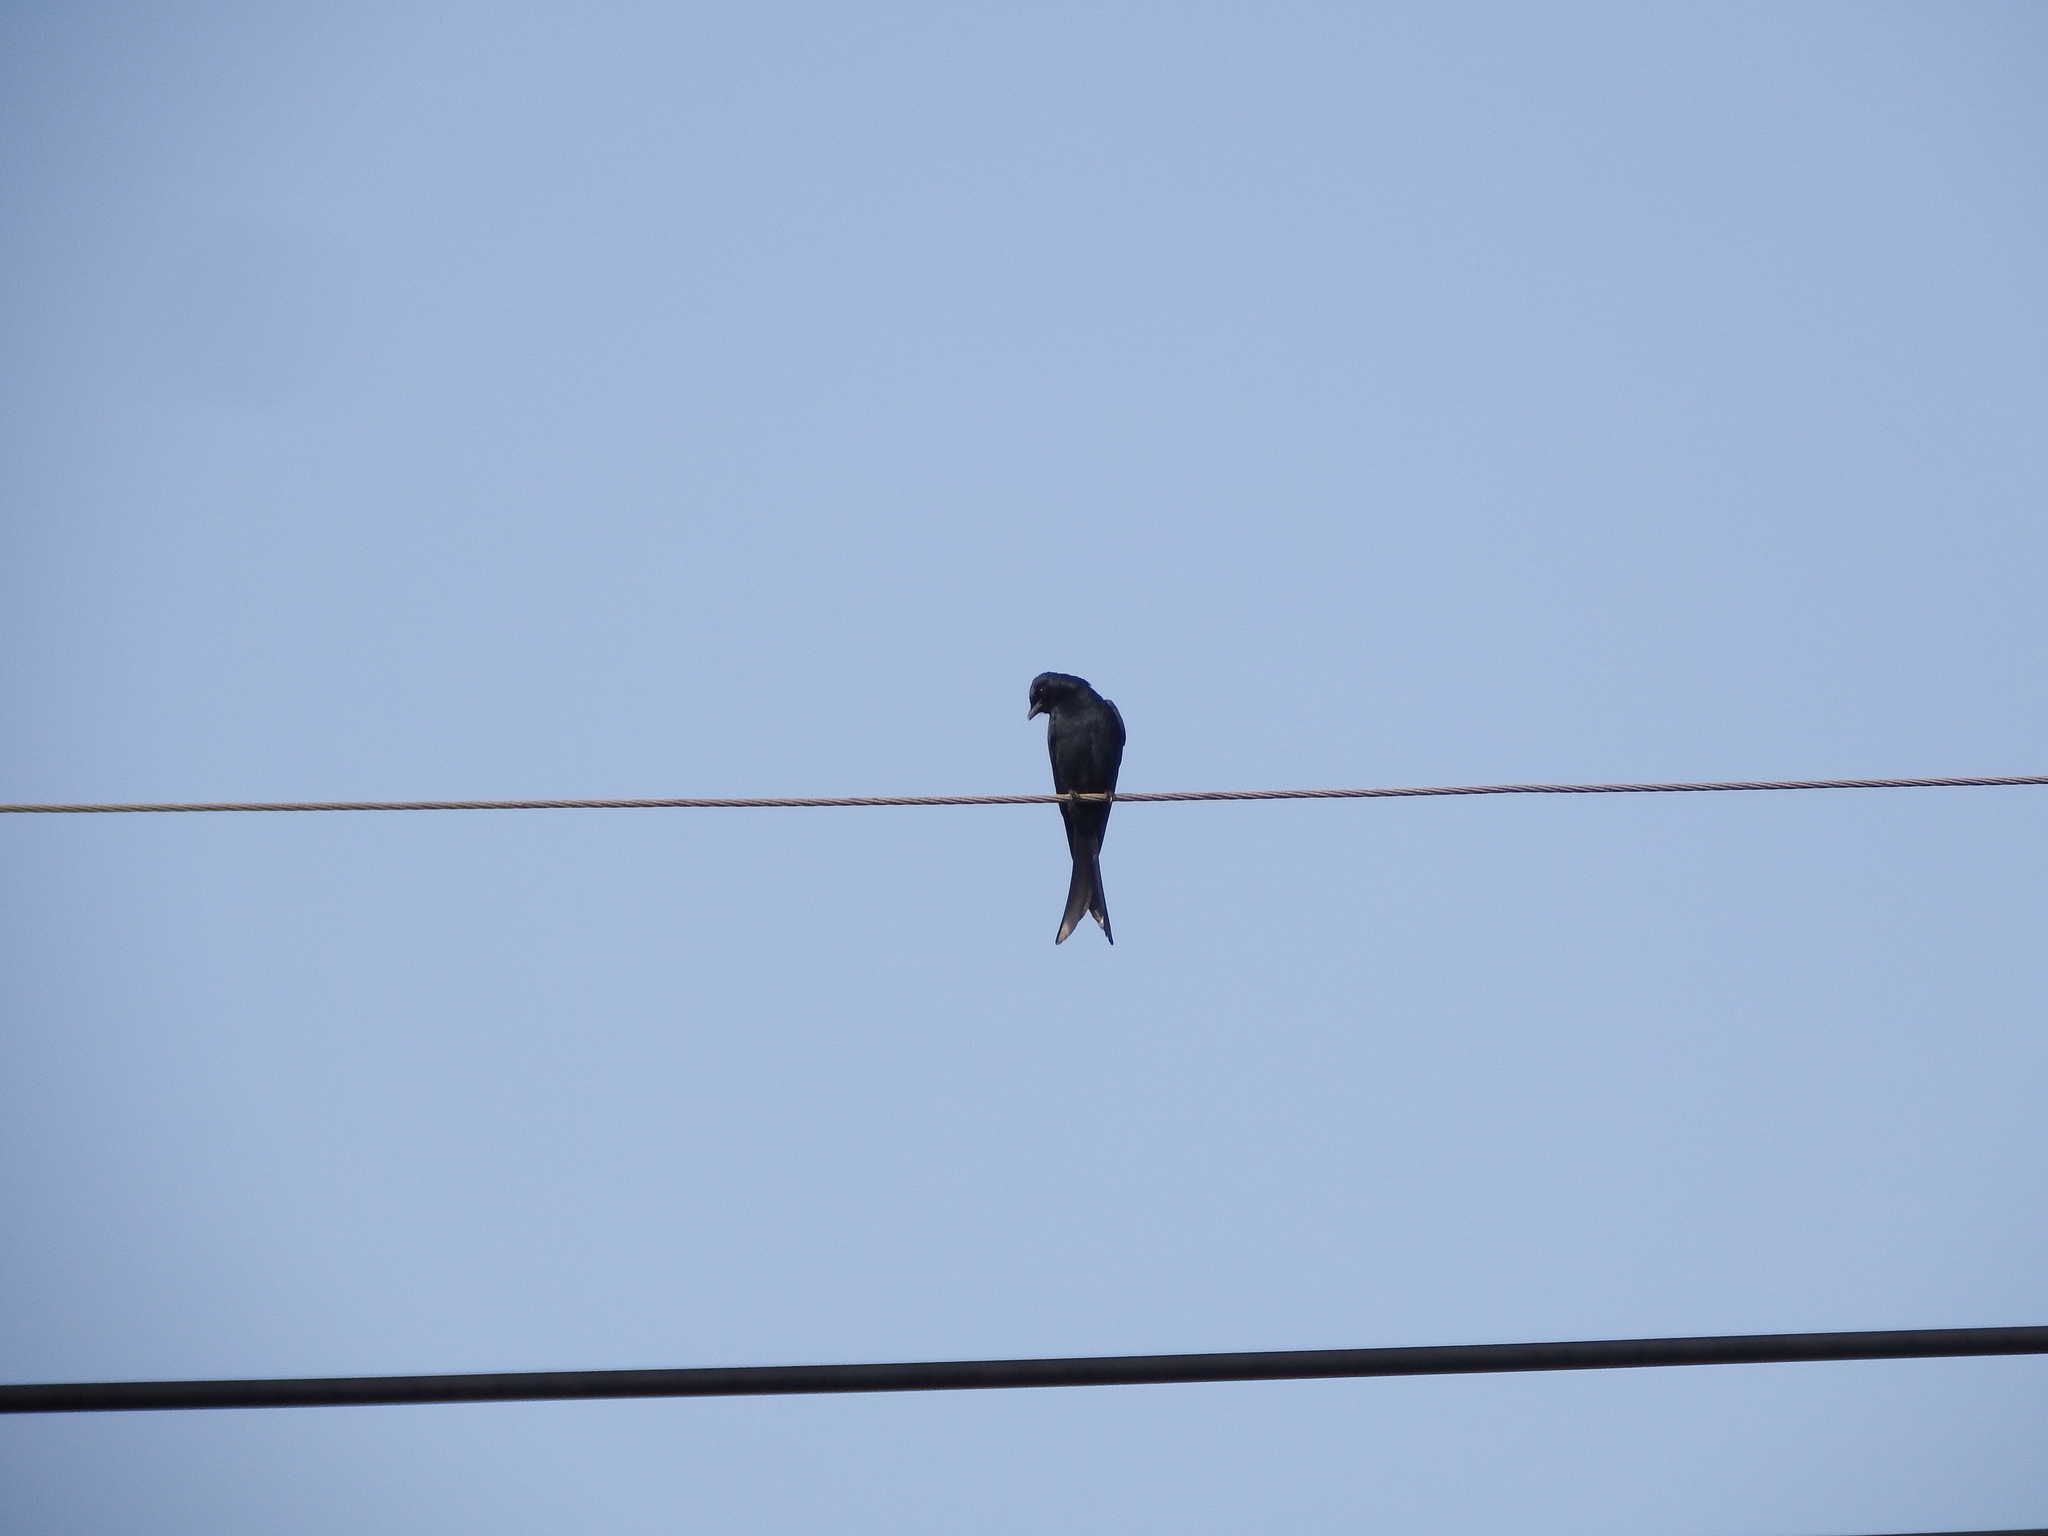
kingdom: Animalia
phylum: Chordata
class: Aves
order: Passeriformes
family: Dicruridae
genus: Dicrurus
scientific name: Dicrurus macrocercus
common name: Black drongo
